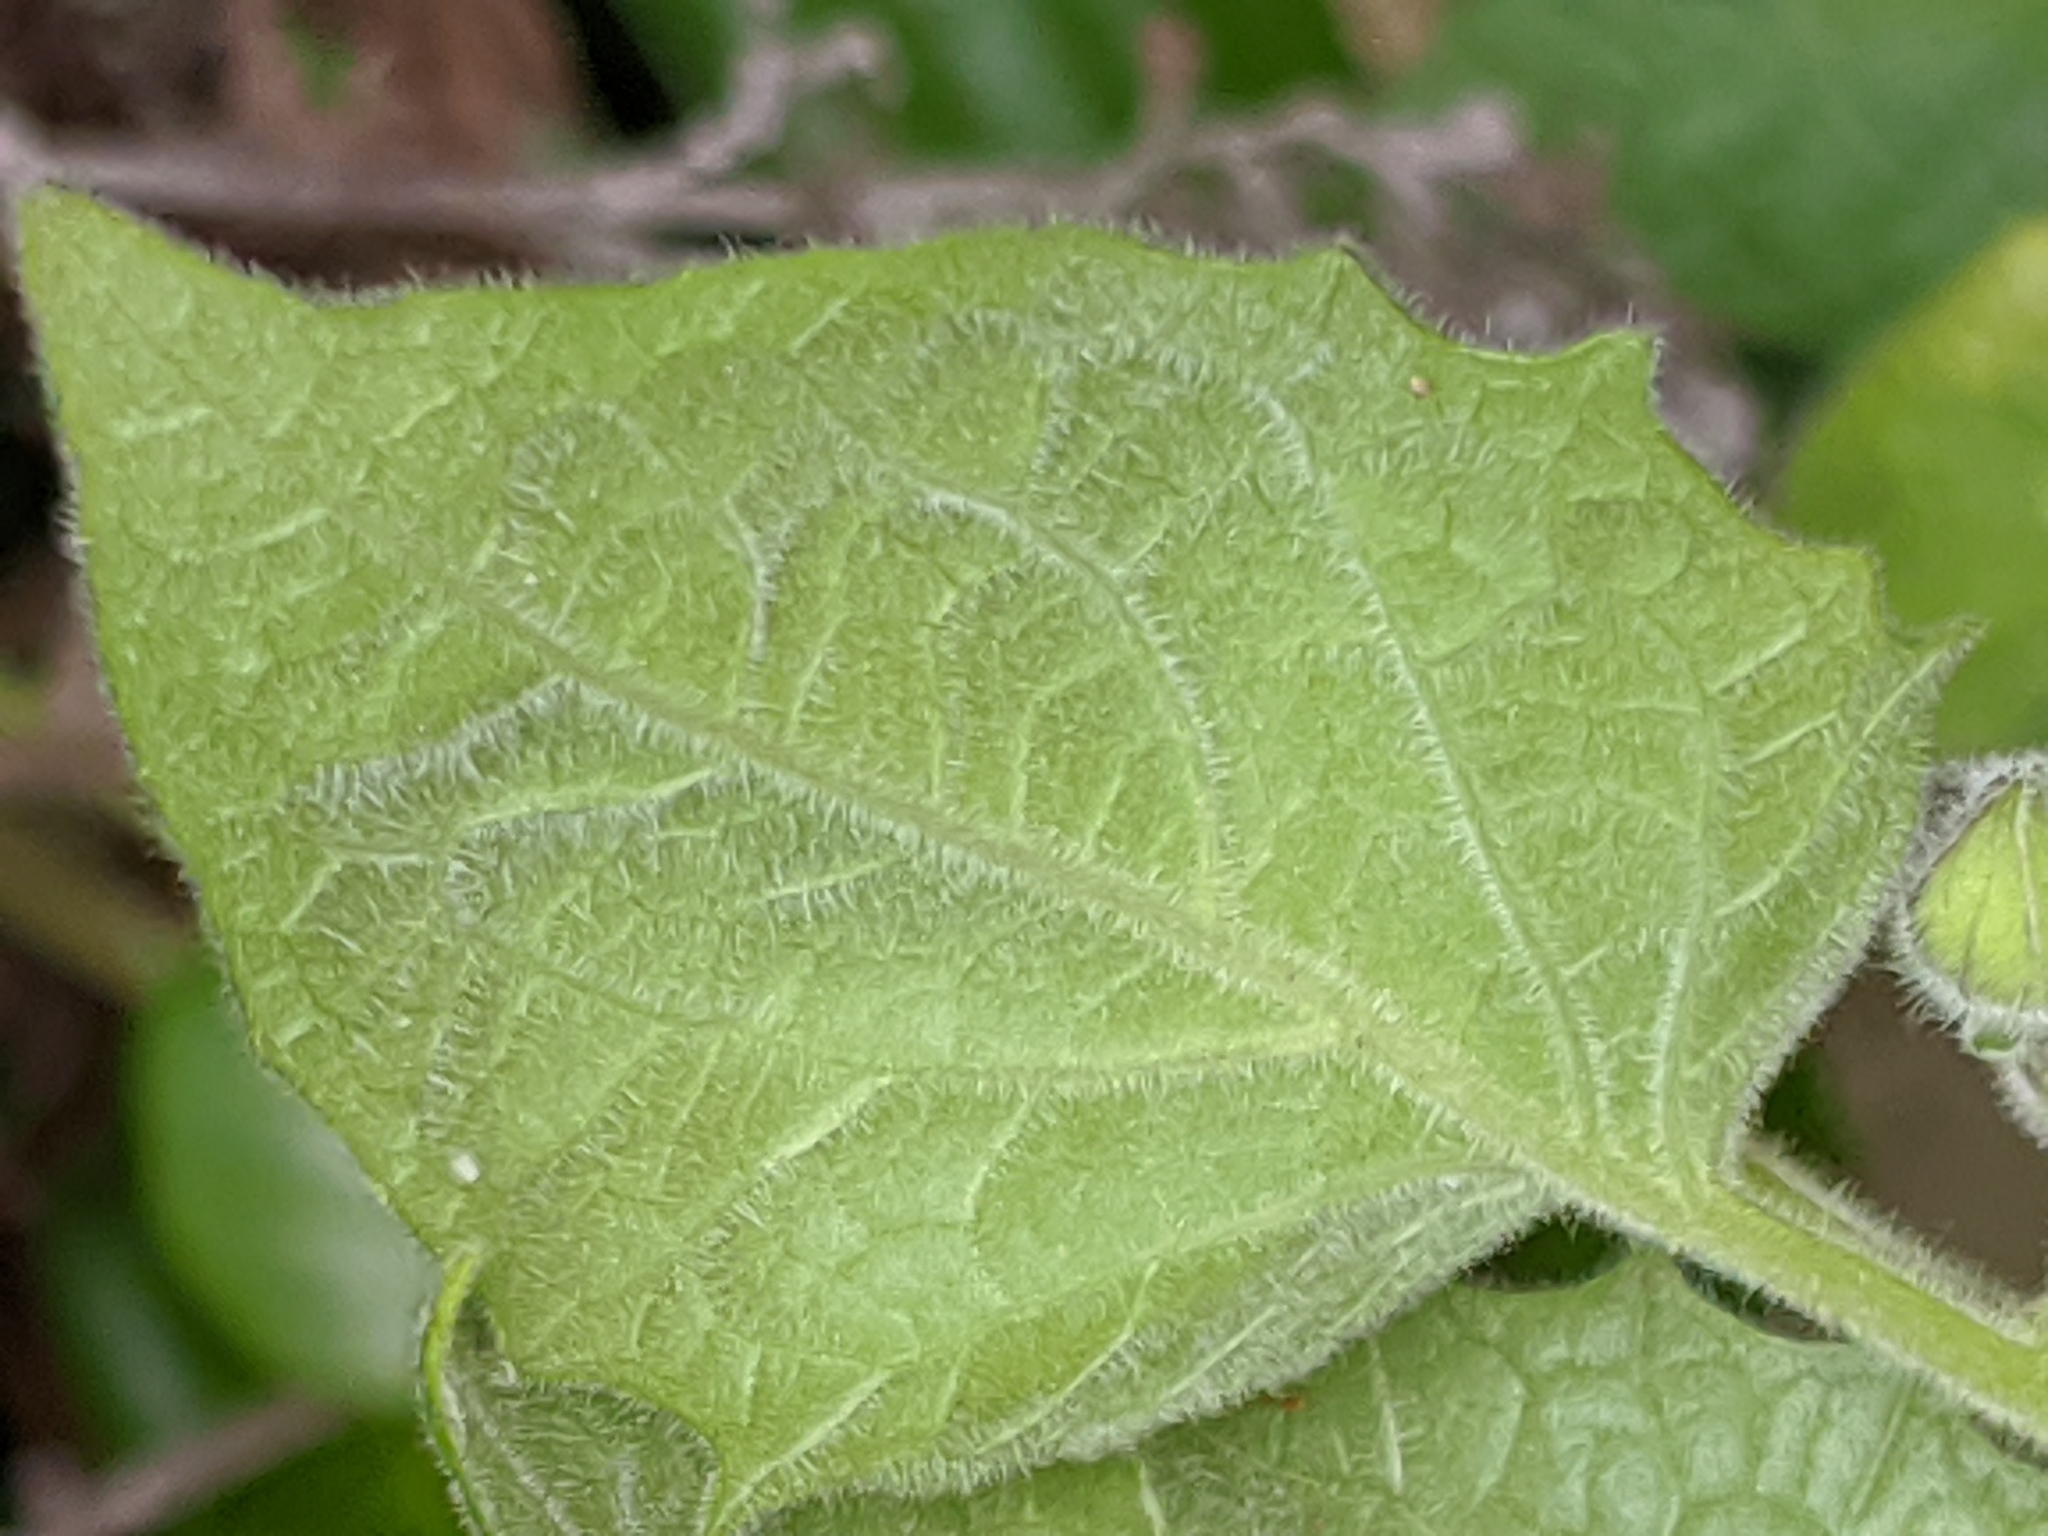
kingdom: Plantae
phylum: Tracheophyta
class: Magnoliopsida
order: Solanales
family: Solanaceae
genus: Physalis
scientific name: Physalis peruviana
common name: Cape-gooseberry
